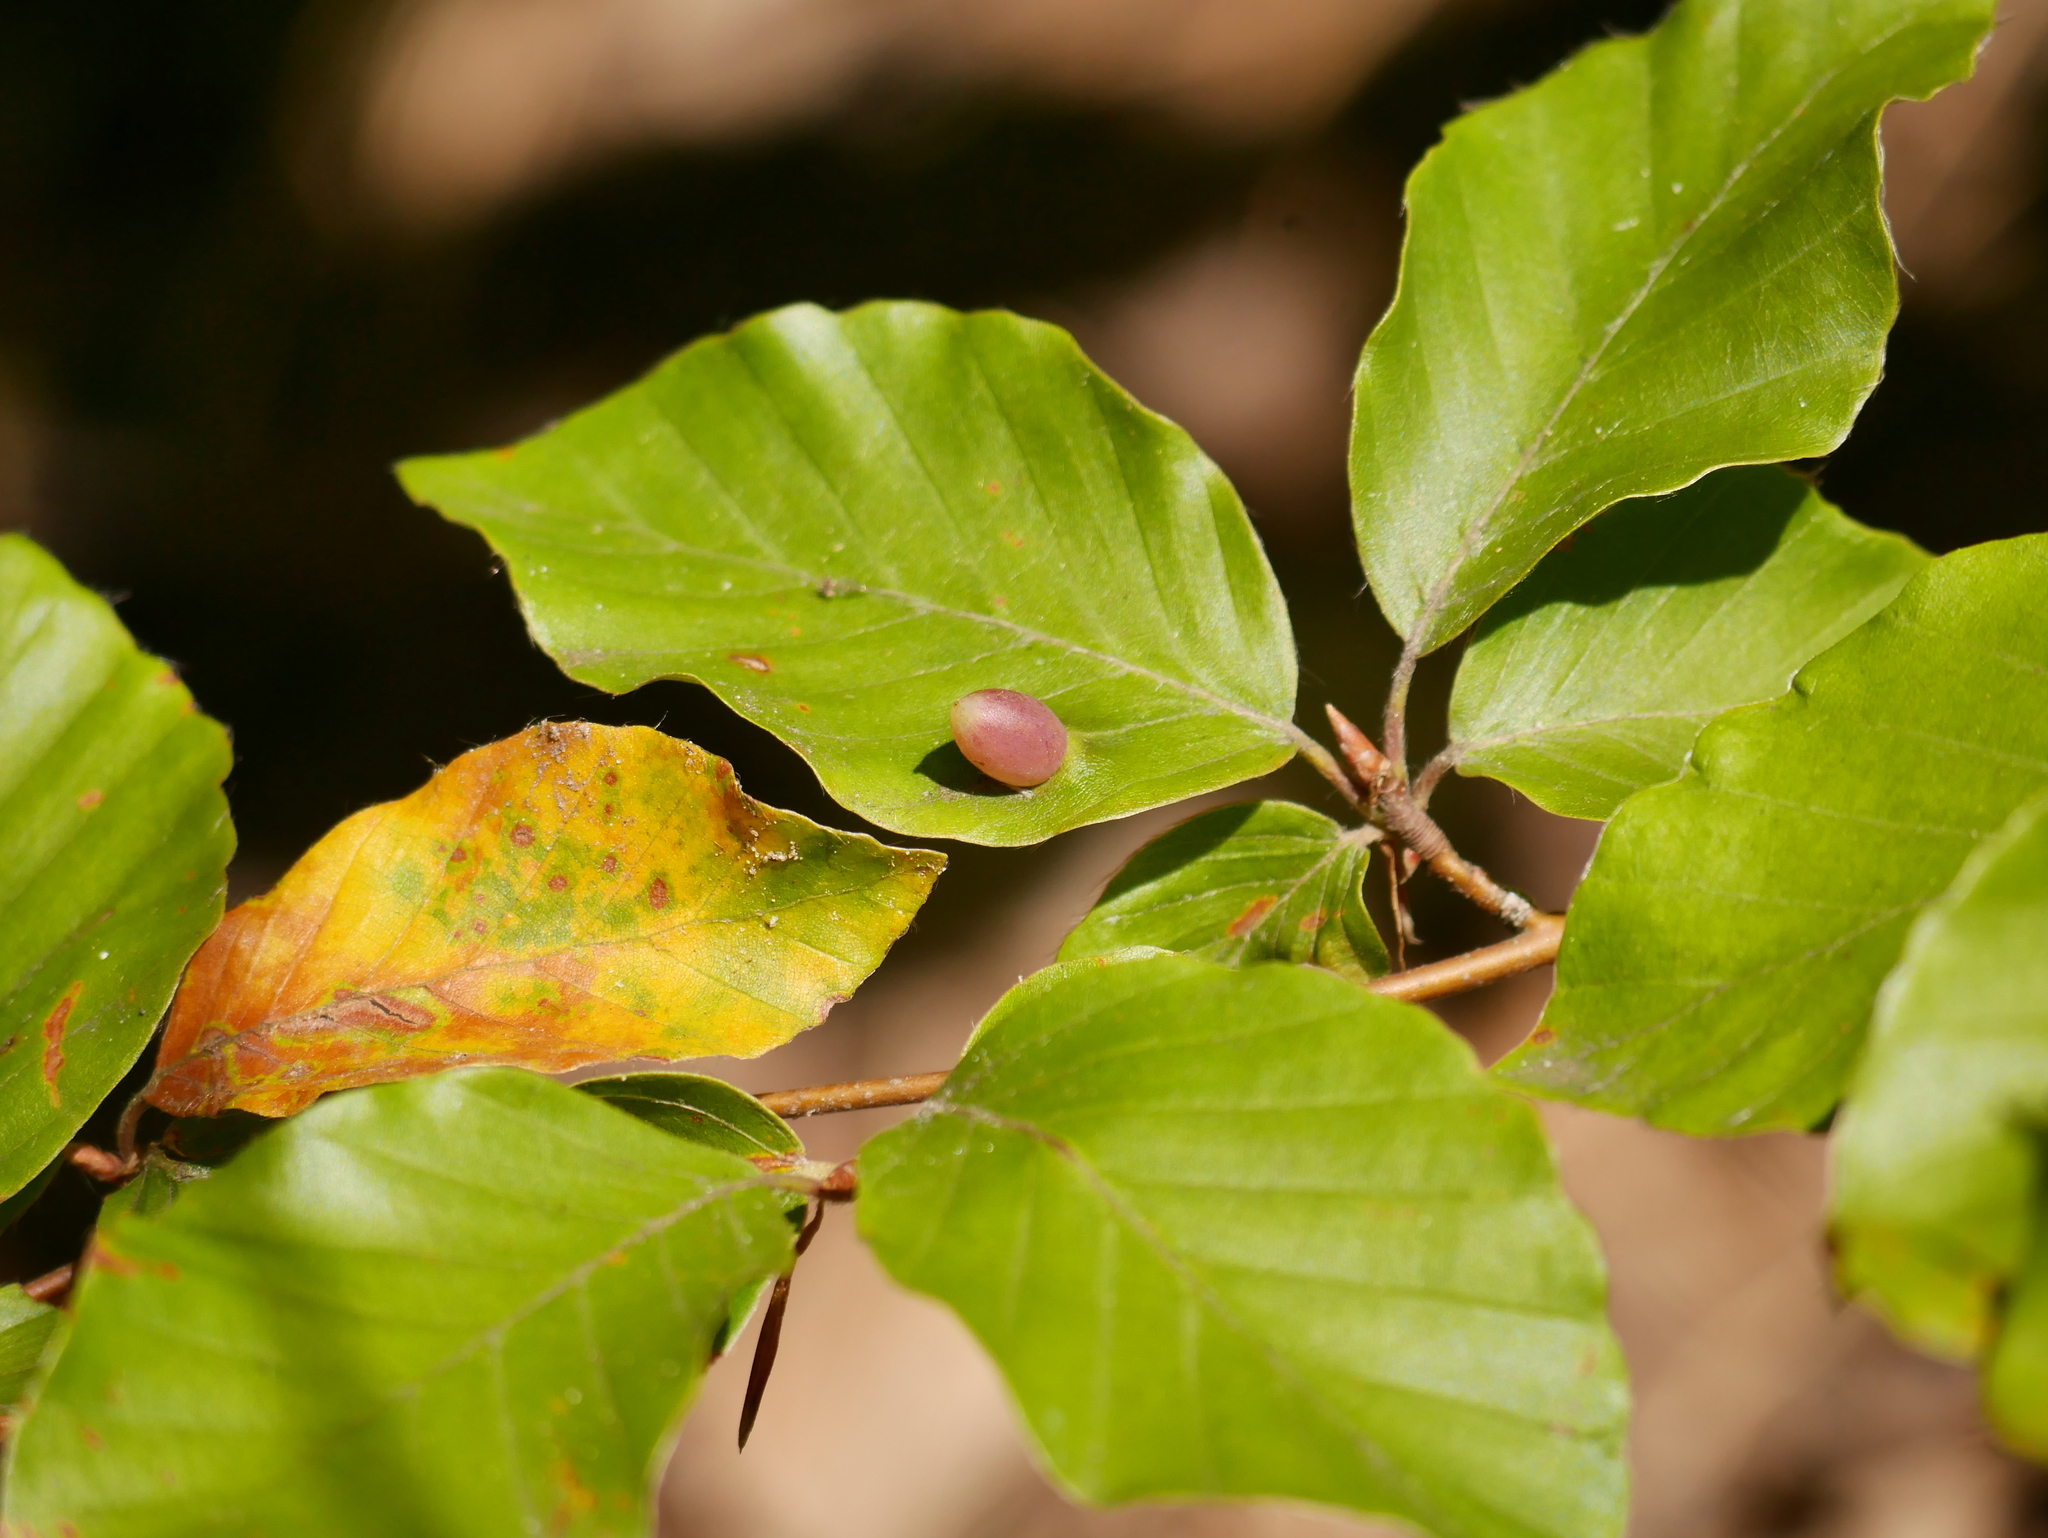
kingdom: Animalia
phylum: Arthropoda
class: Insecta
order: Diptera
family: Cecidomyiidae
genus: Mikiola
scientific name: Mikiola fagi
